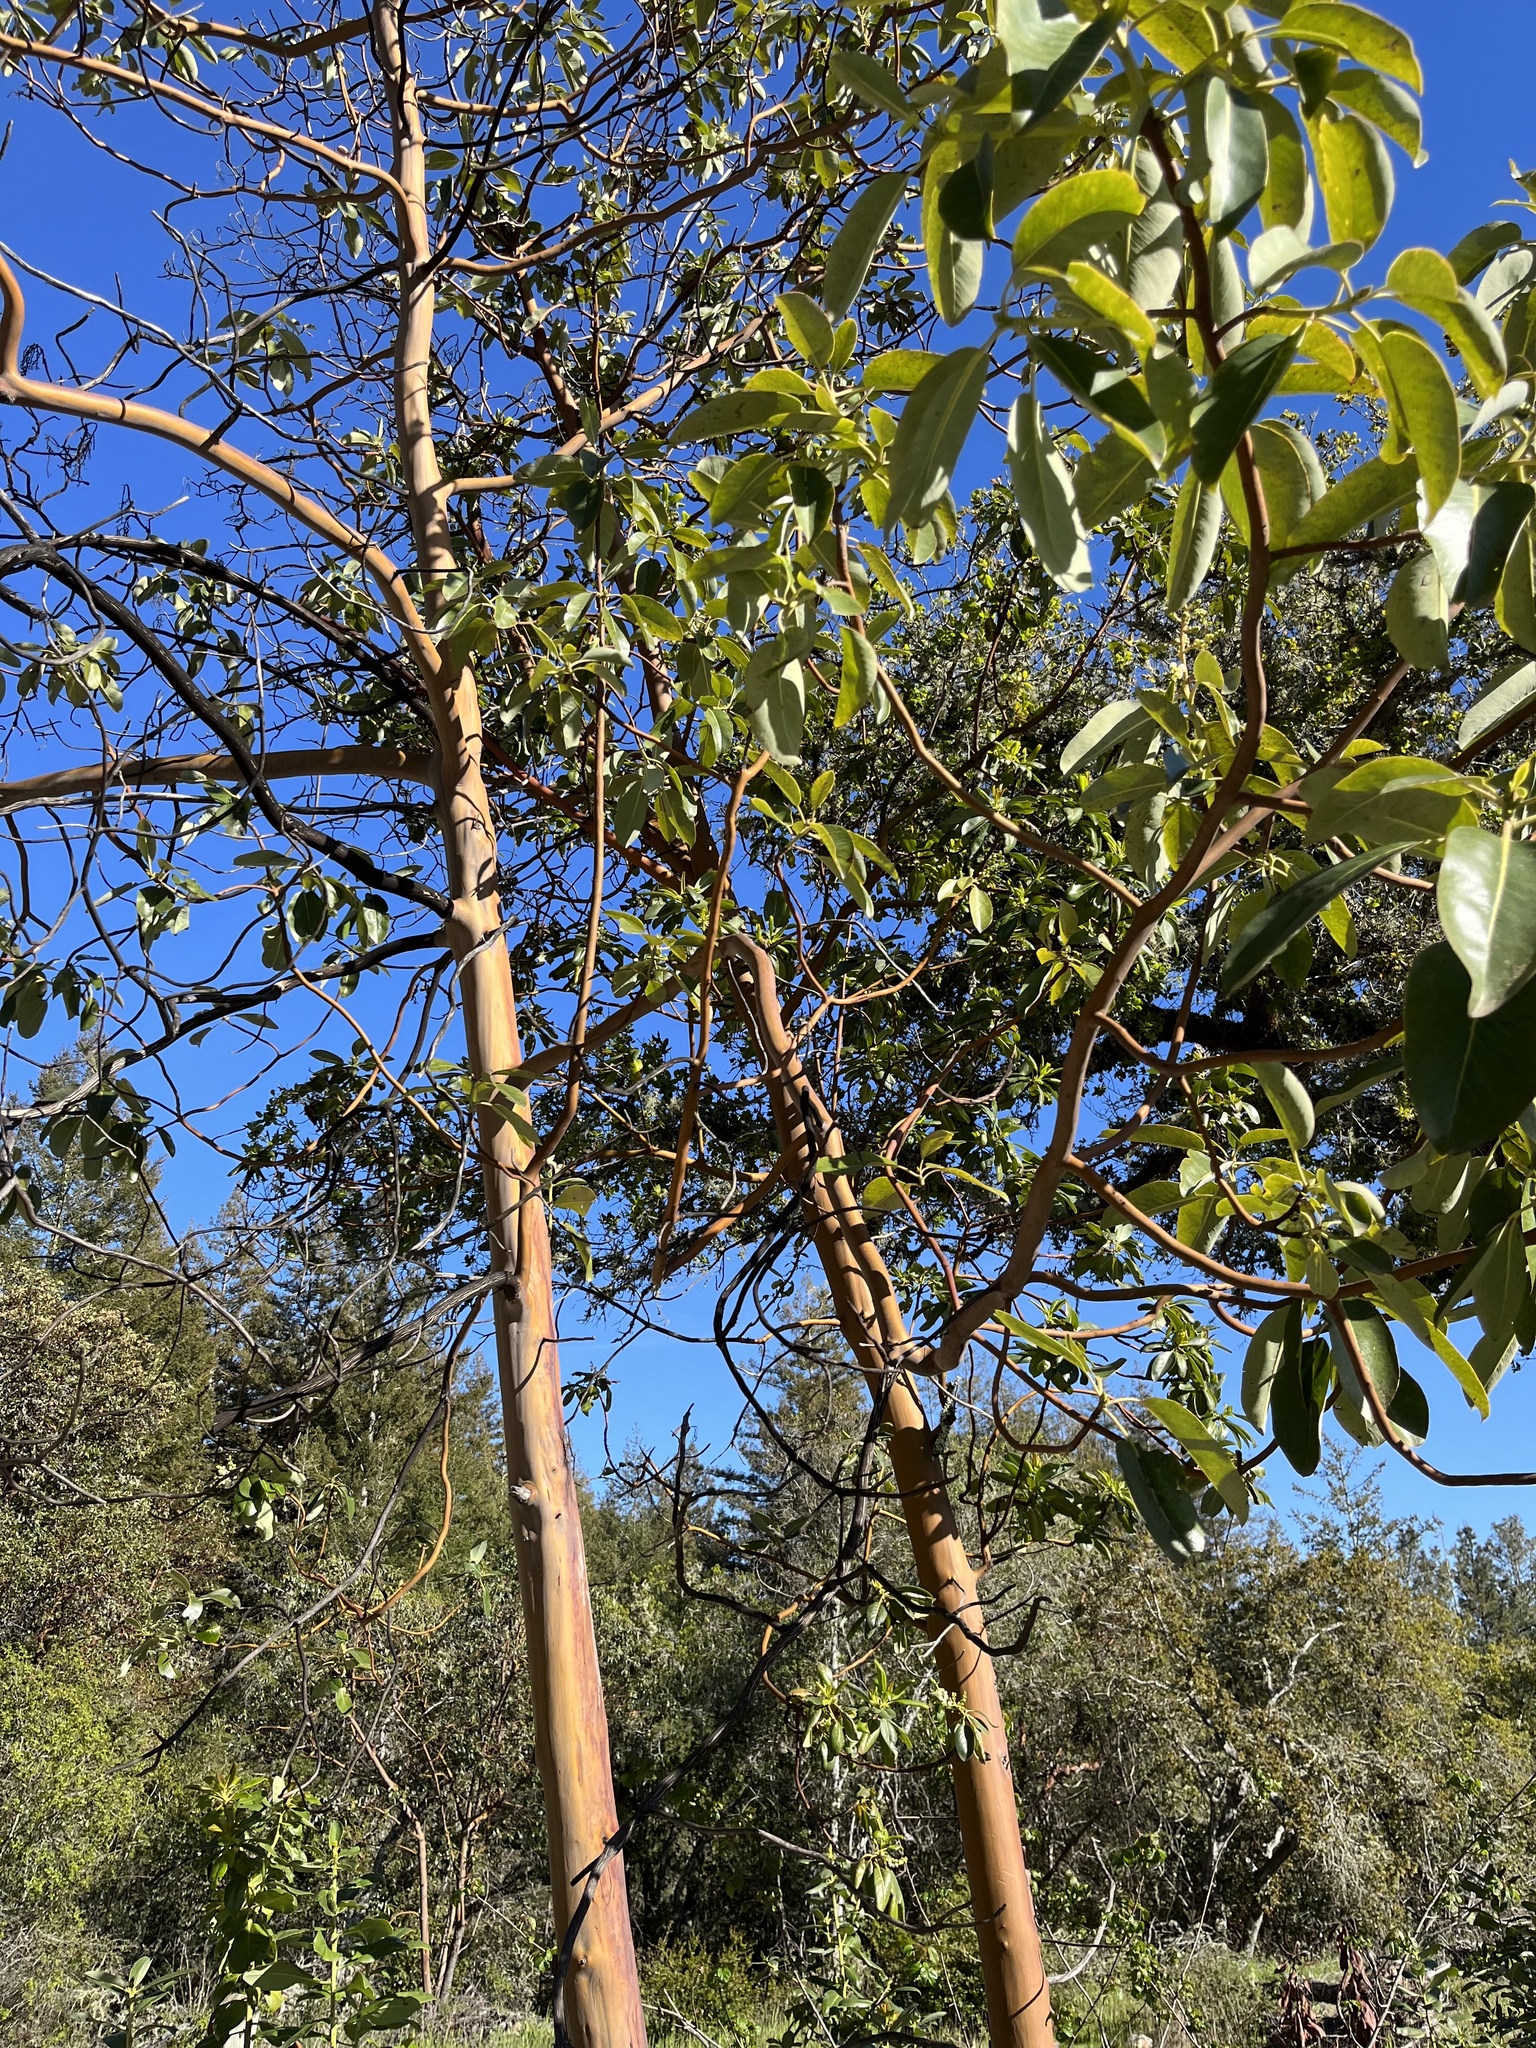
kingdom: Plantae
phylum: Tracheophyta
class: Magnoliopsida
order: Ericales
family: Ericaceae
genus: Arbutus
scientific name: Arbutus menziesii
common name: Pacific madrone
